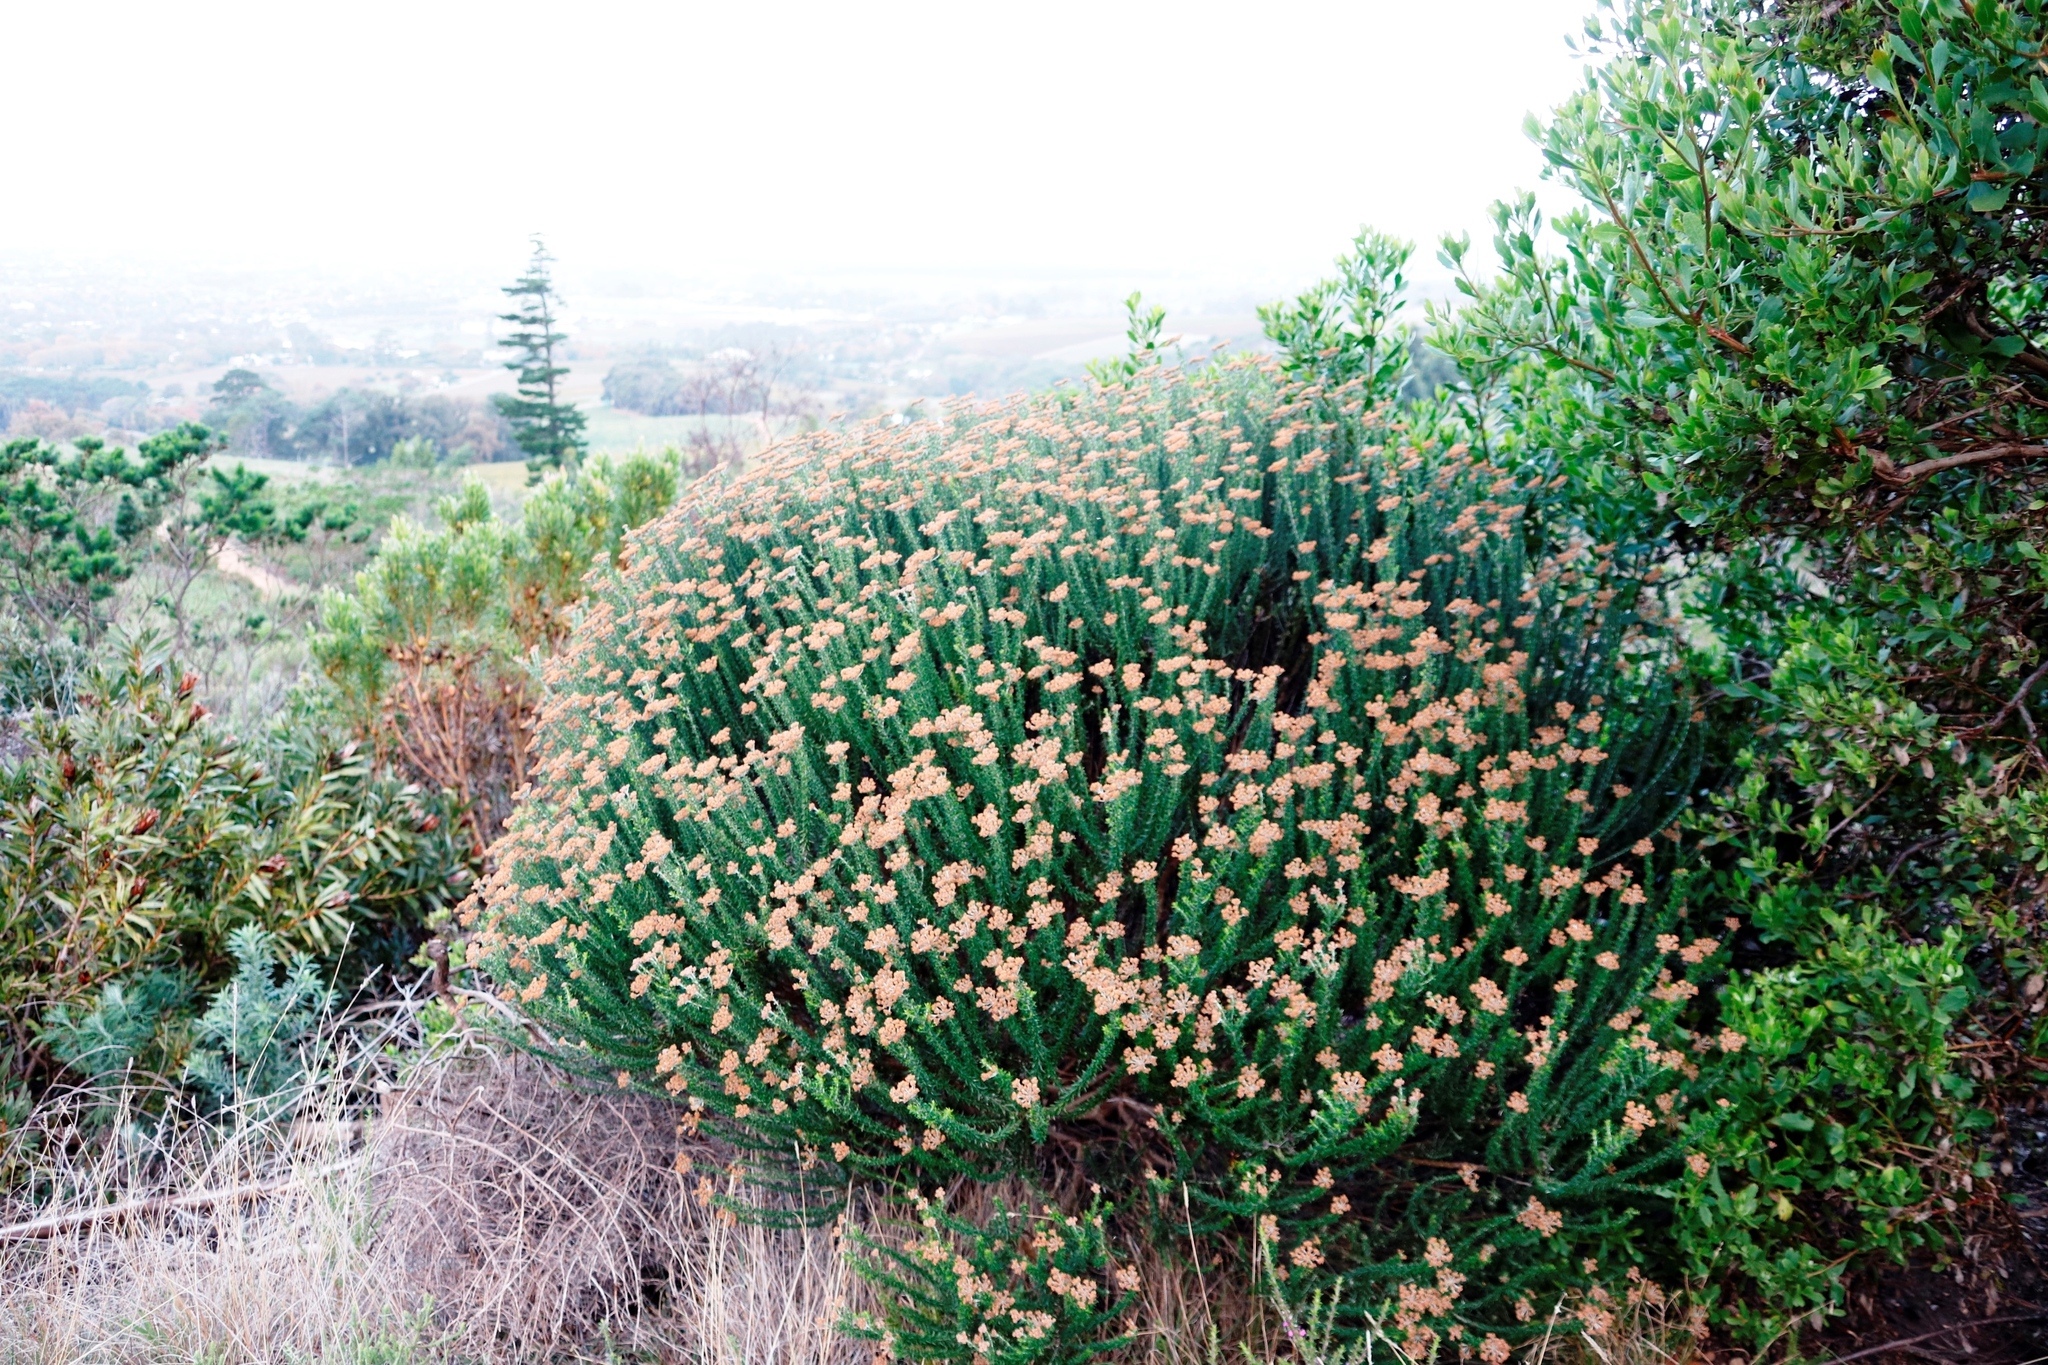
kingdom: Plantae
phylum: Tracheophyta
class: Magnoliopsida
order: Asterales
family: Asteraceae
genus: Metalasia
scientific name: Metalasia densa
